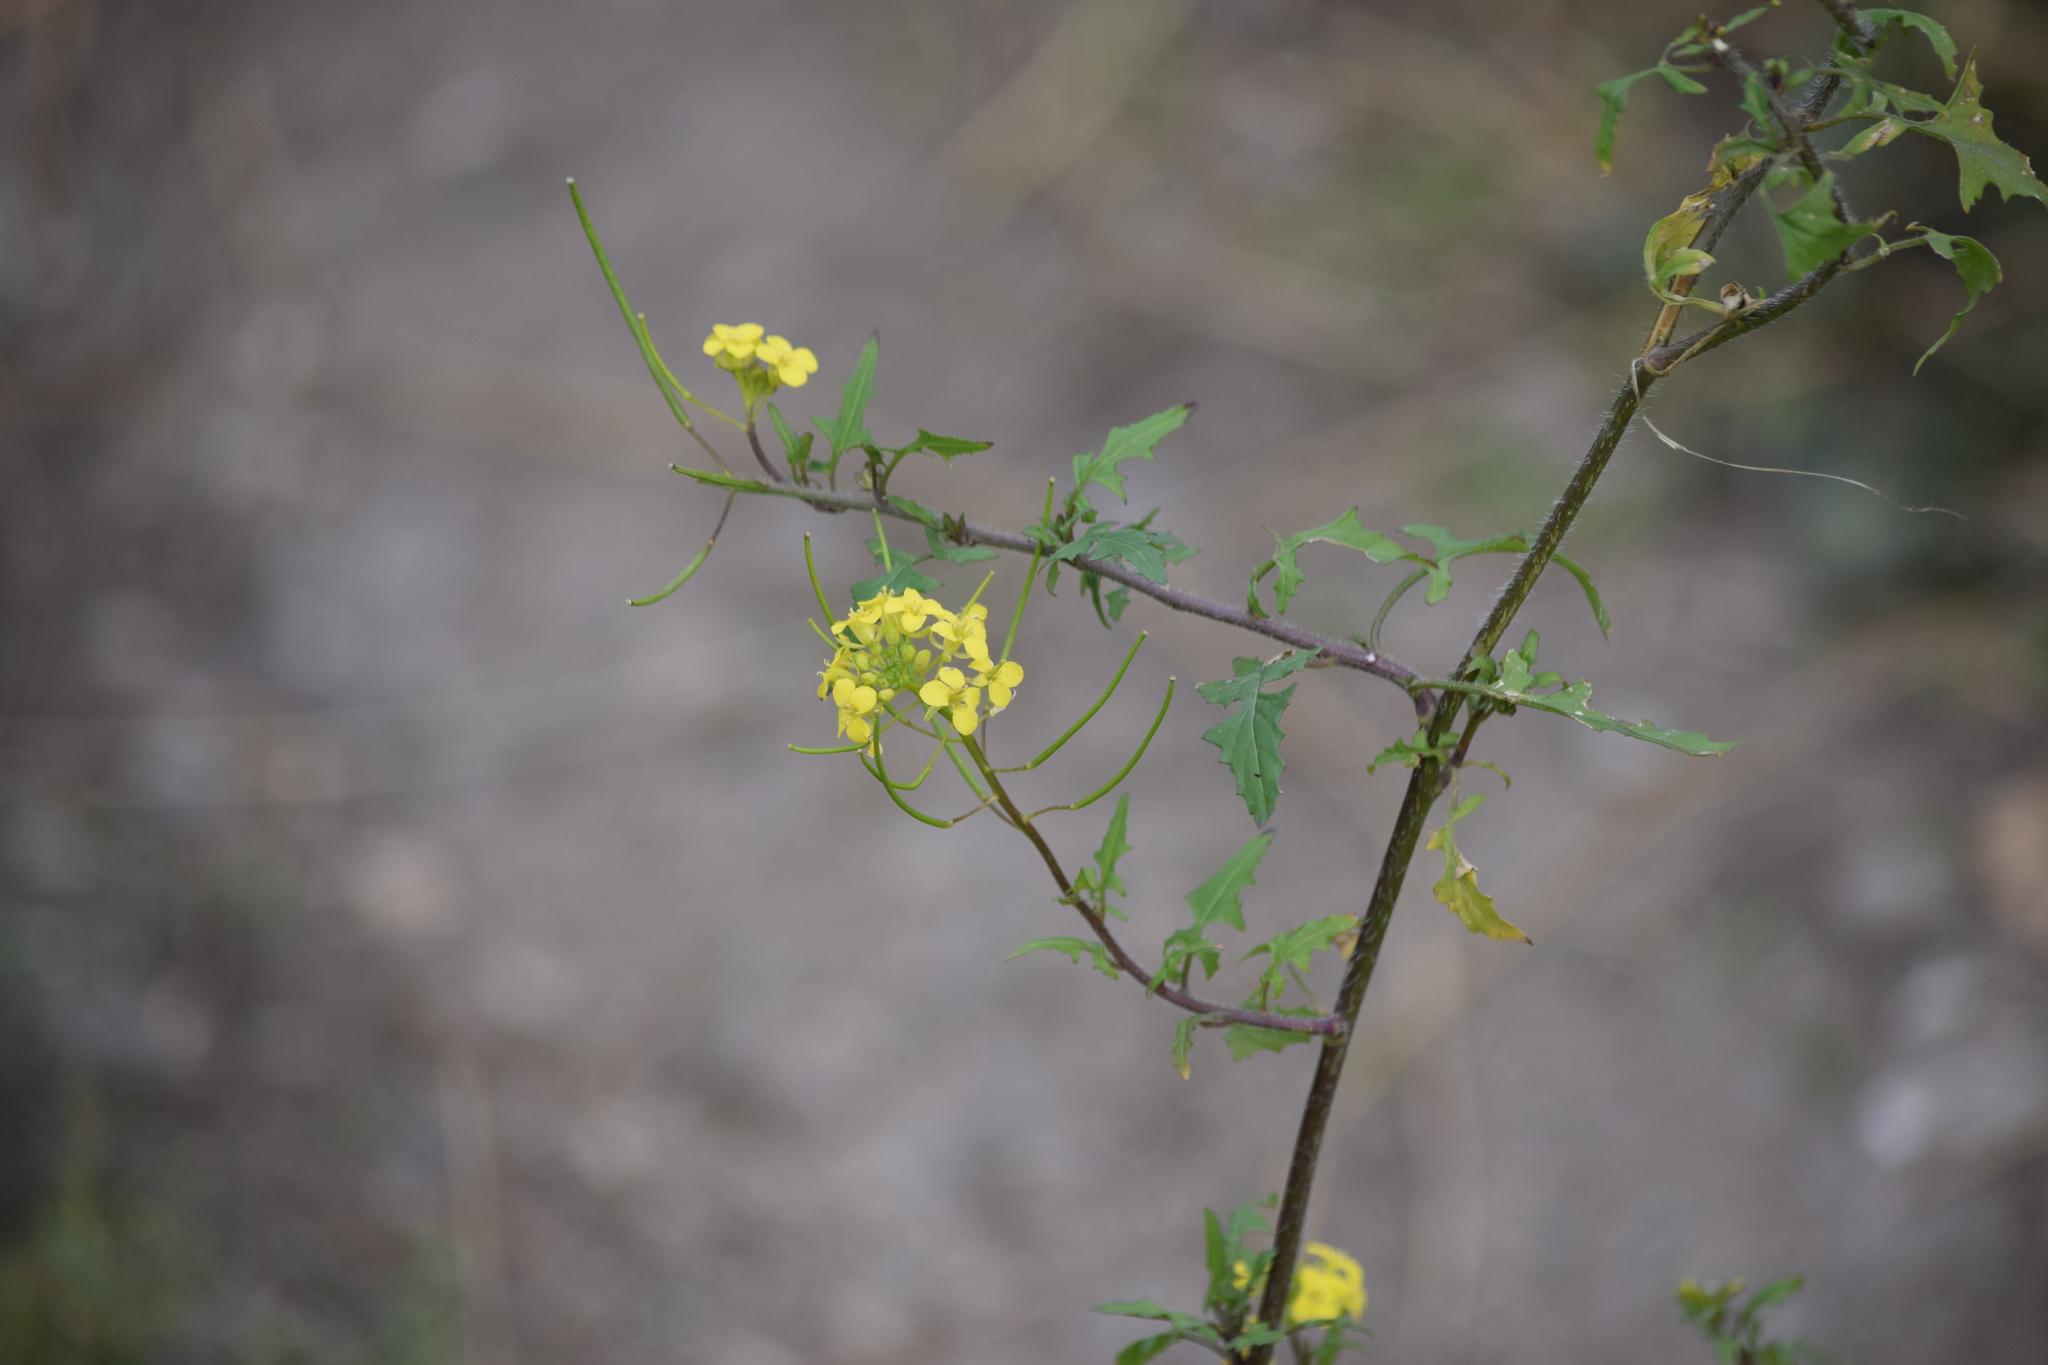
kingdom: Plantae
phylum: Tracheophyta
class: Magnoliopsida
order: Brassicales
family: Brassicaceae
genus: Sisymbrium
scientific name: Sisymbrium loeselii
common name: False london-rocket
